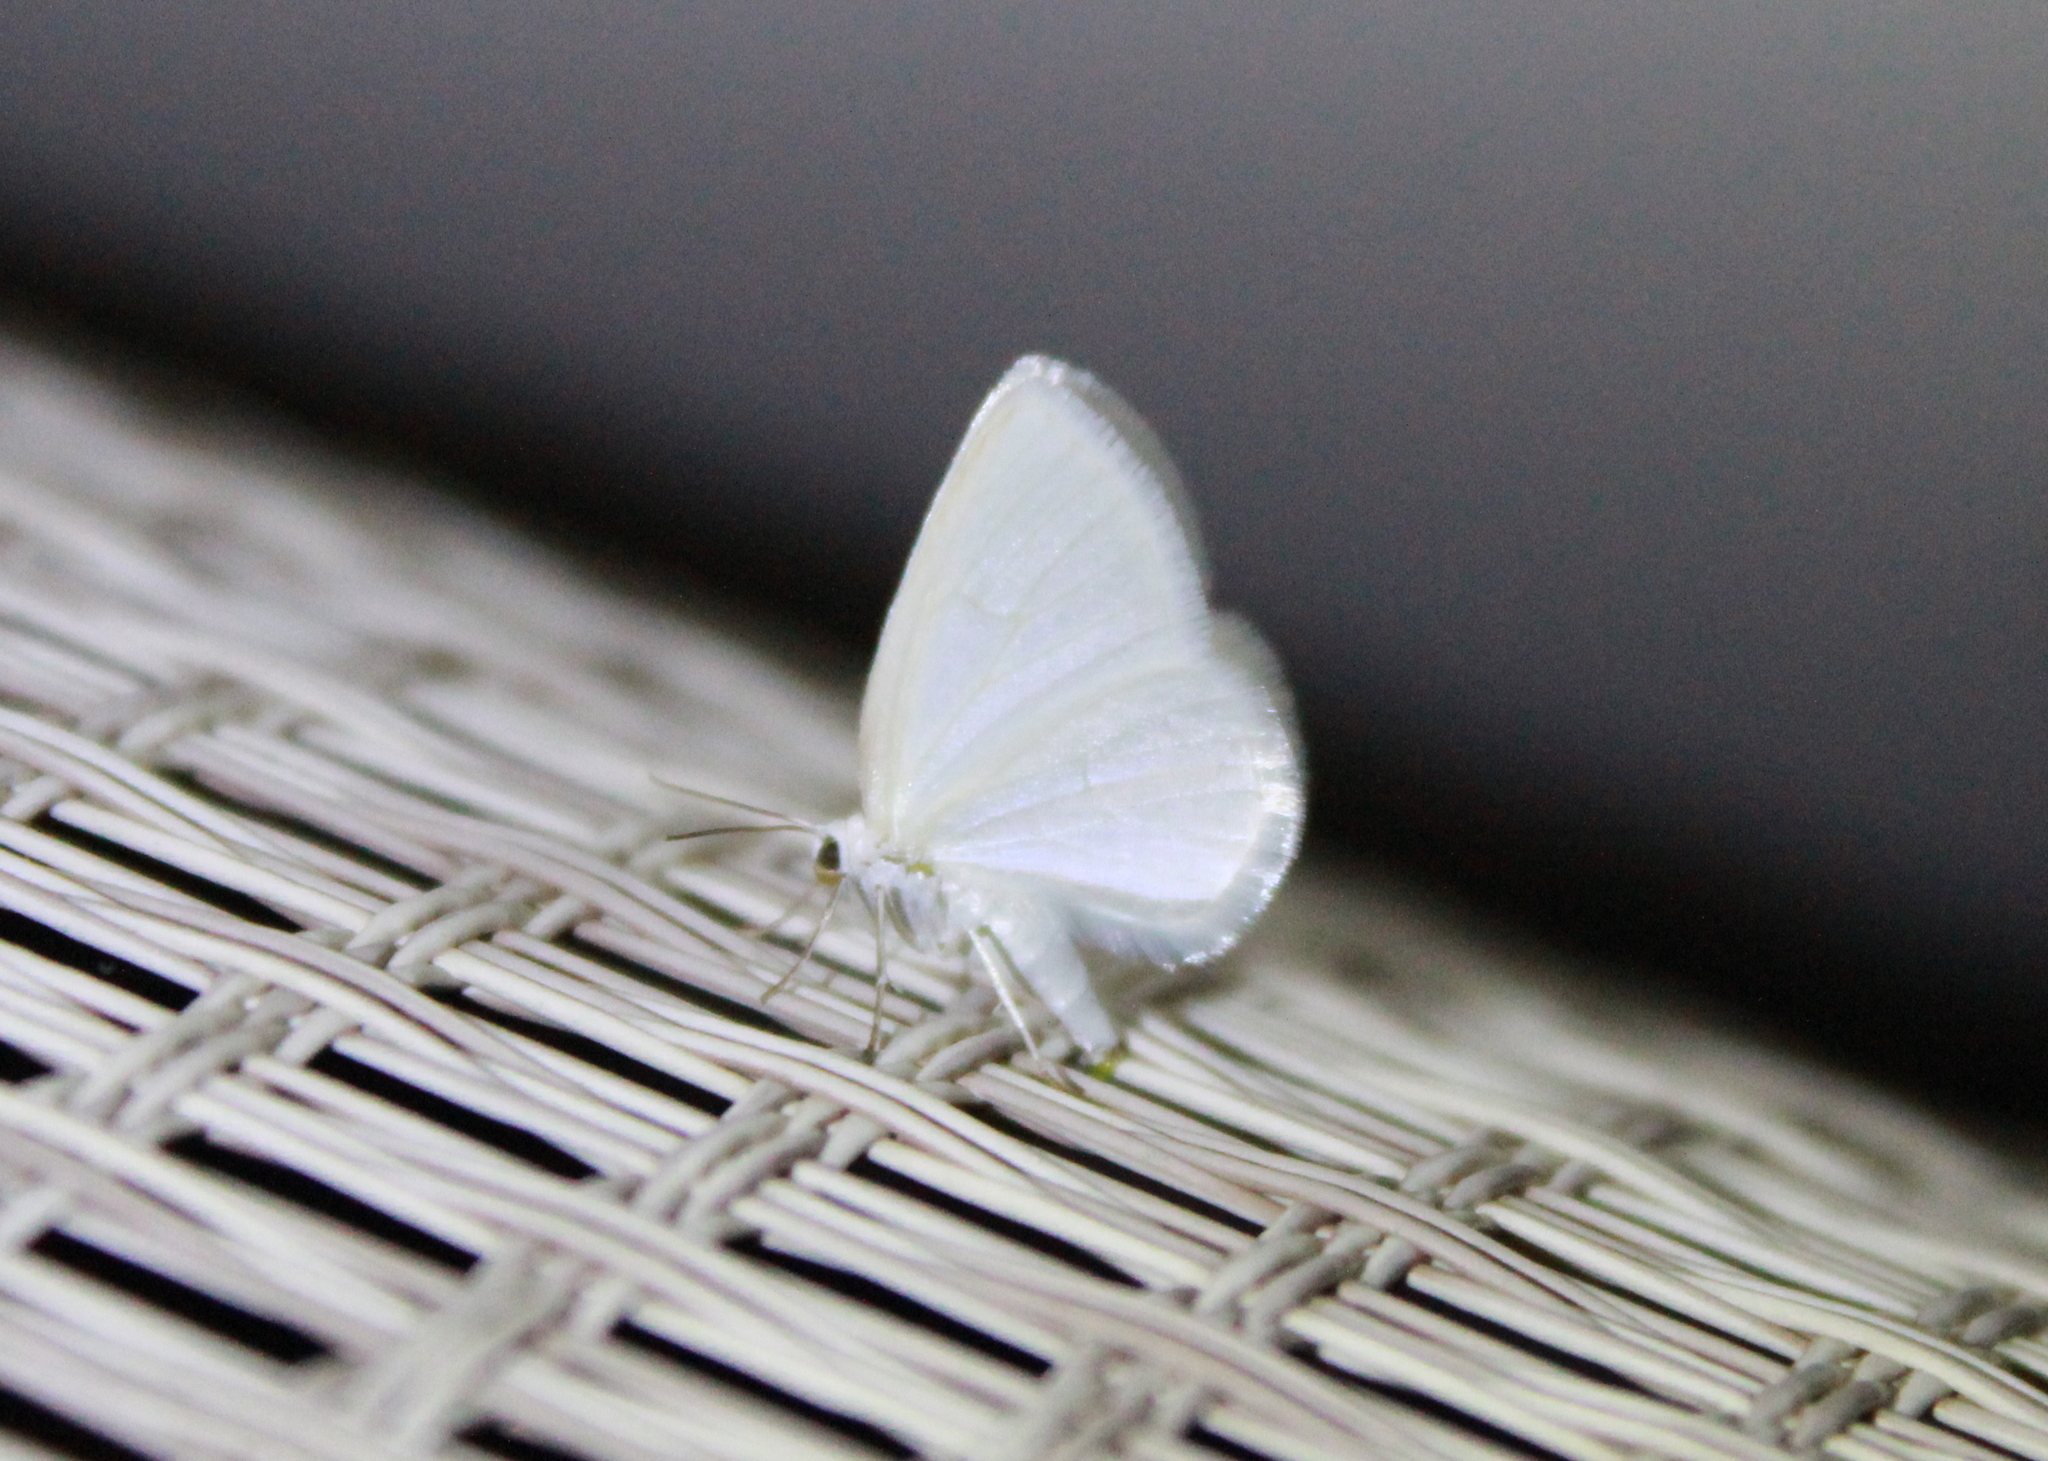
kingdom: Animalia
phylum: Arthropoda
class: Insecta
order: Lepidoptera
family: Geometridae
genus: Lomographa
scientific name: Lomographa vestaliata
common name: White spring moth
